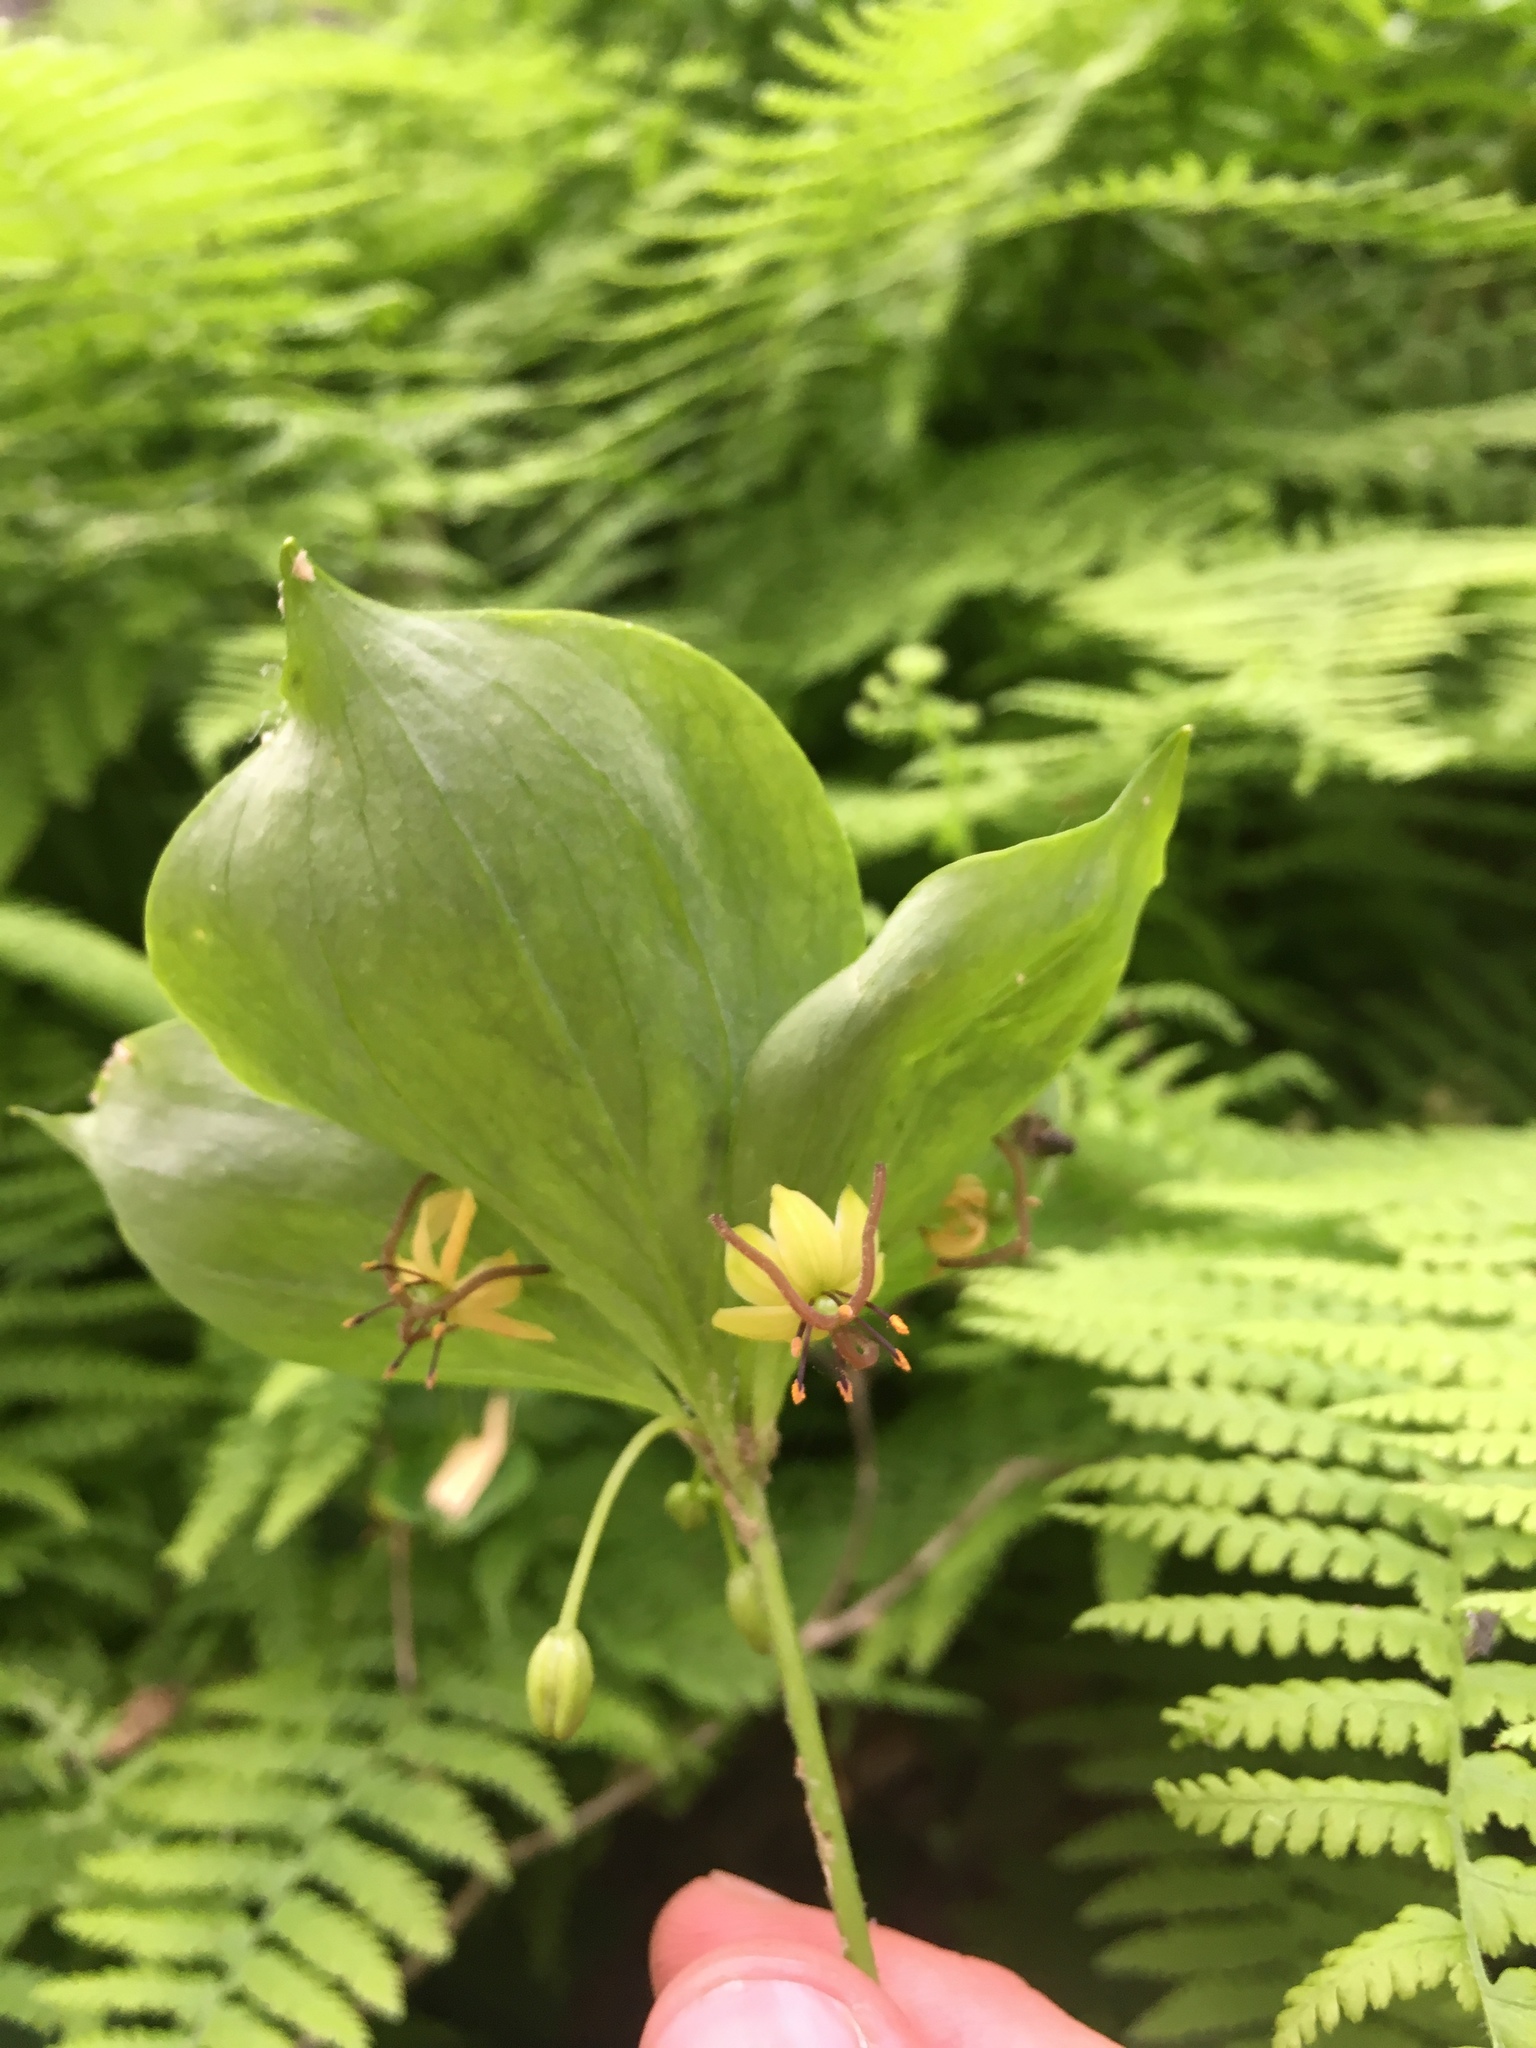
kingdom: Plantae
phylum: Tracheophyta
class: Liliopsida
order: Liliales
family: Liliaceae
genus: Medeola
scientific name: Medeola virginiana
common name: Indian cucumber-root
